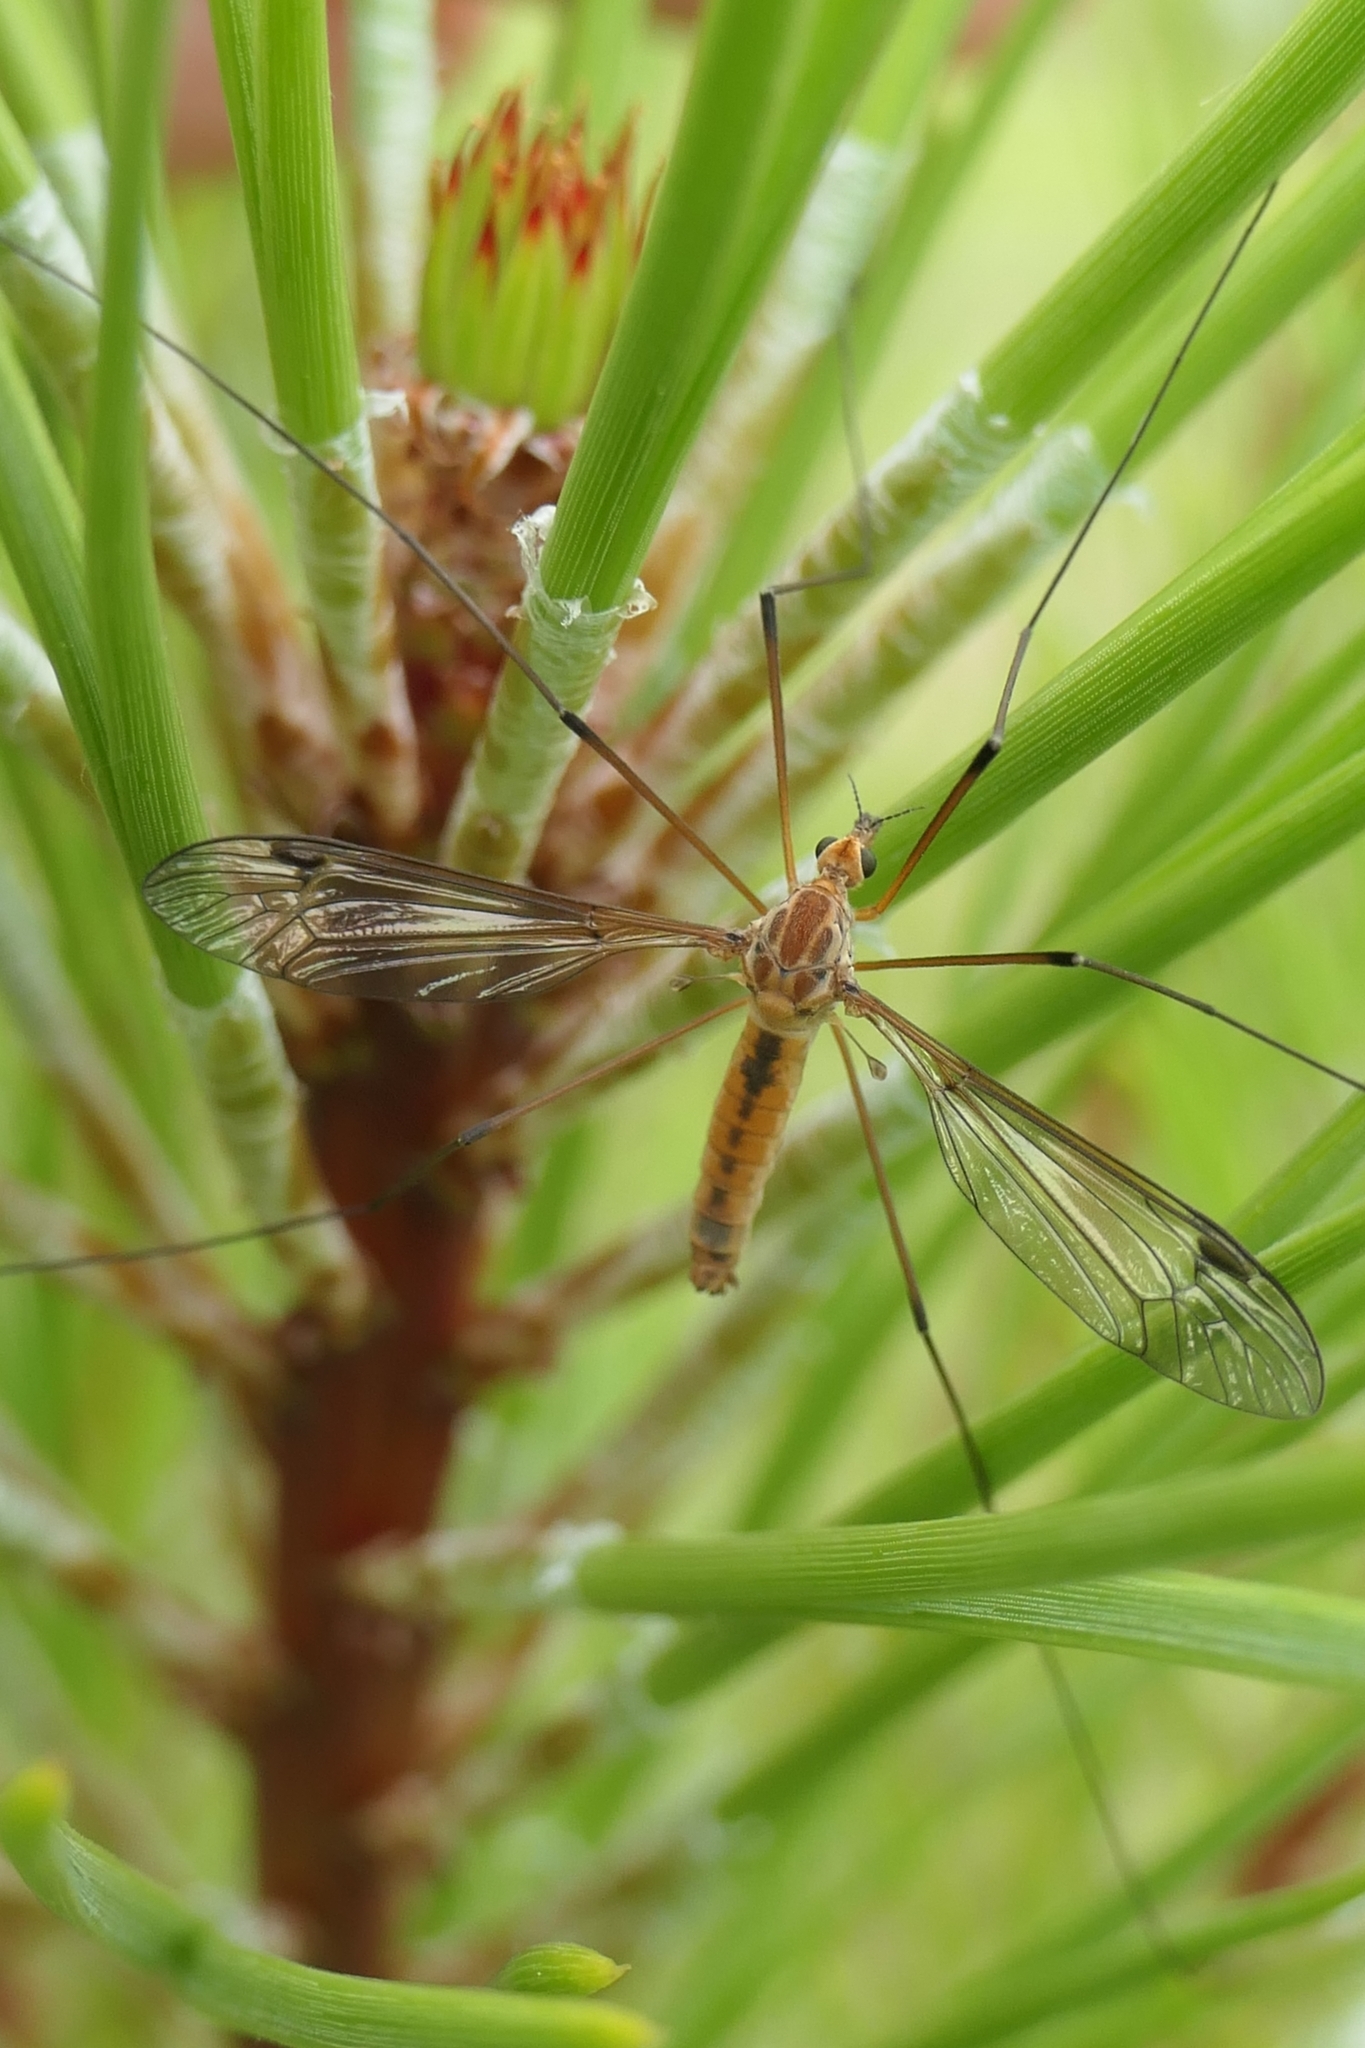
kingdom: Animalia
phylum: Arthropoda
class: Insecta
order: Diptera
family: Tipulidae
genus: Leptotarsus
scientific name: Leptotarsus dichroithorax
